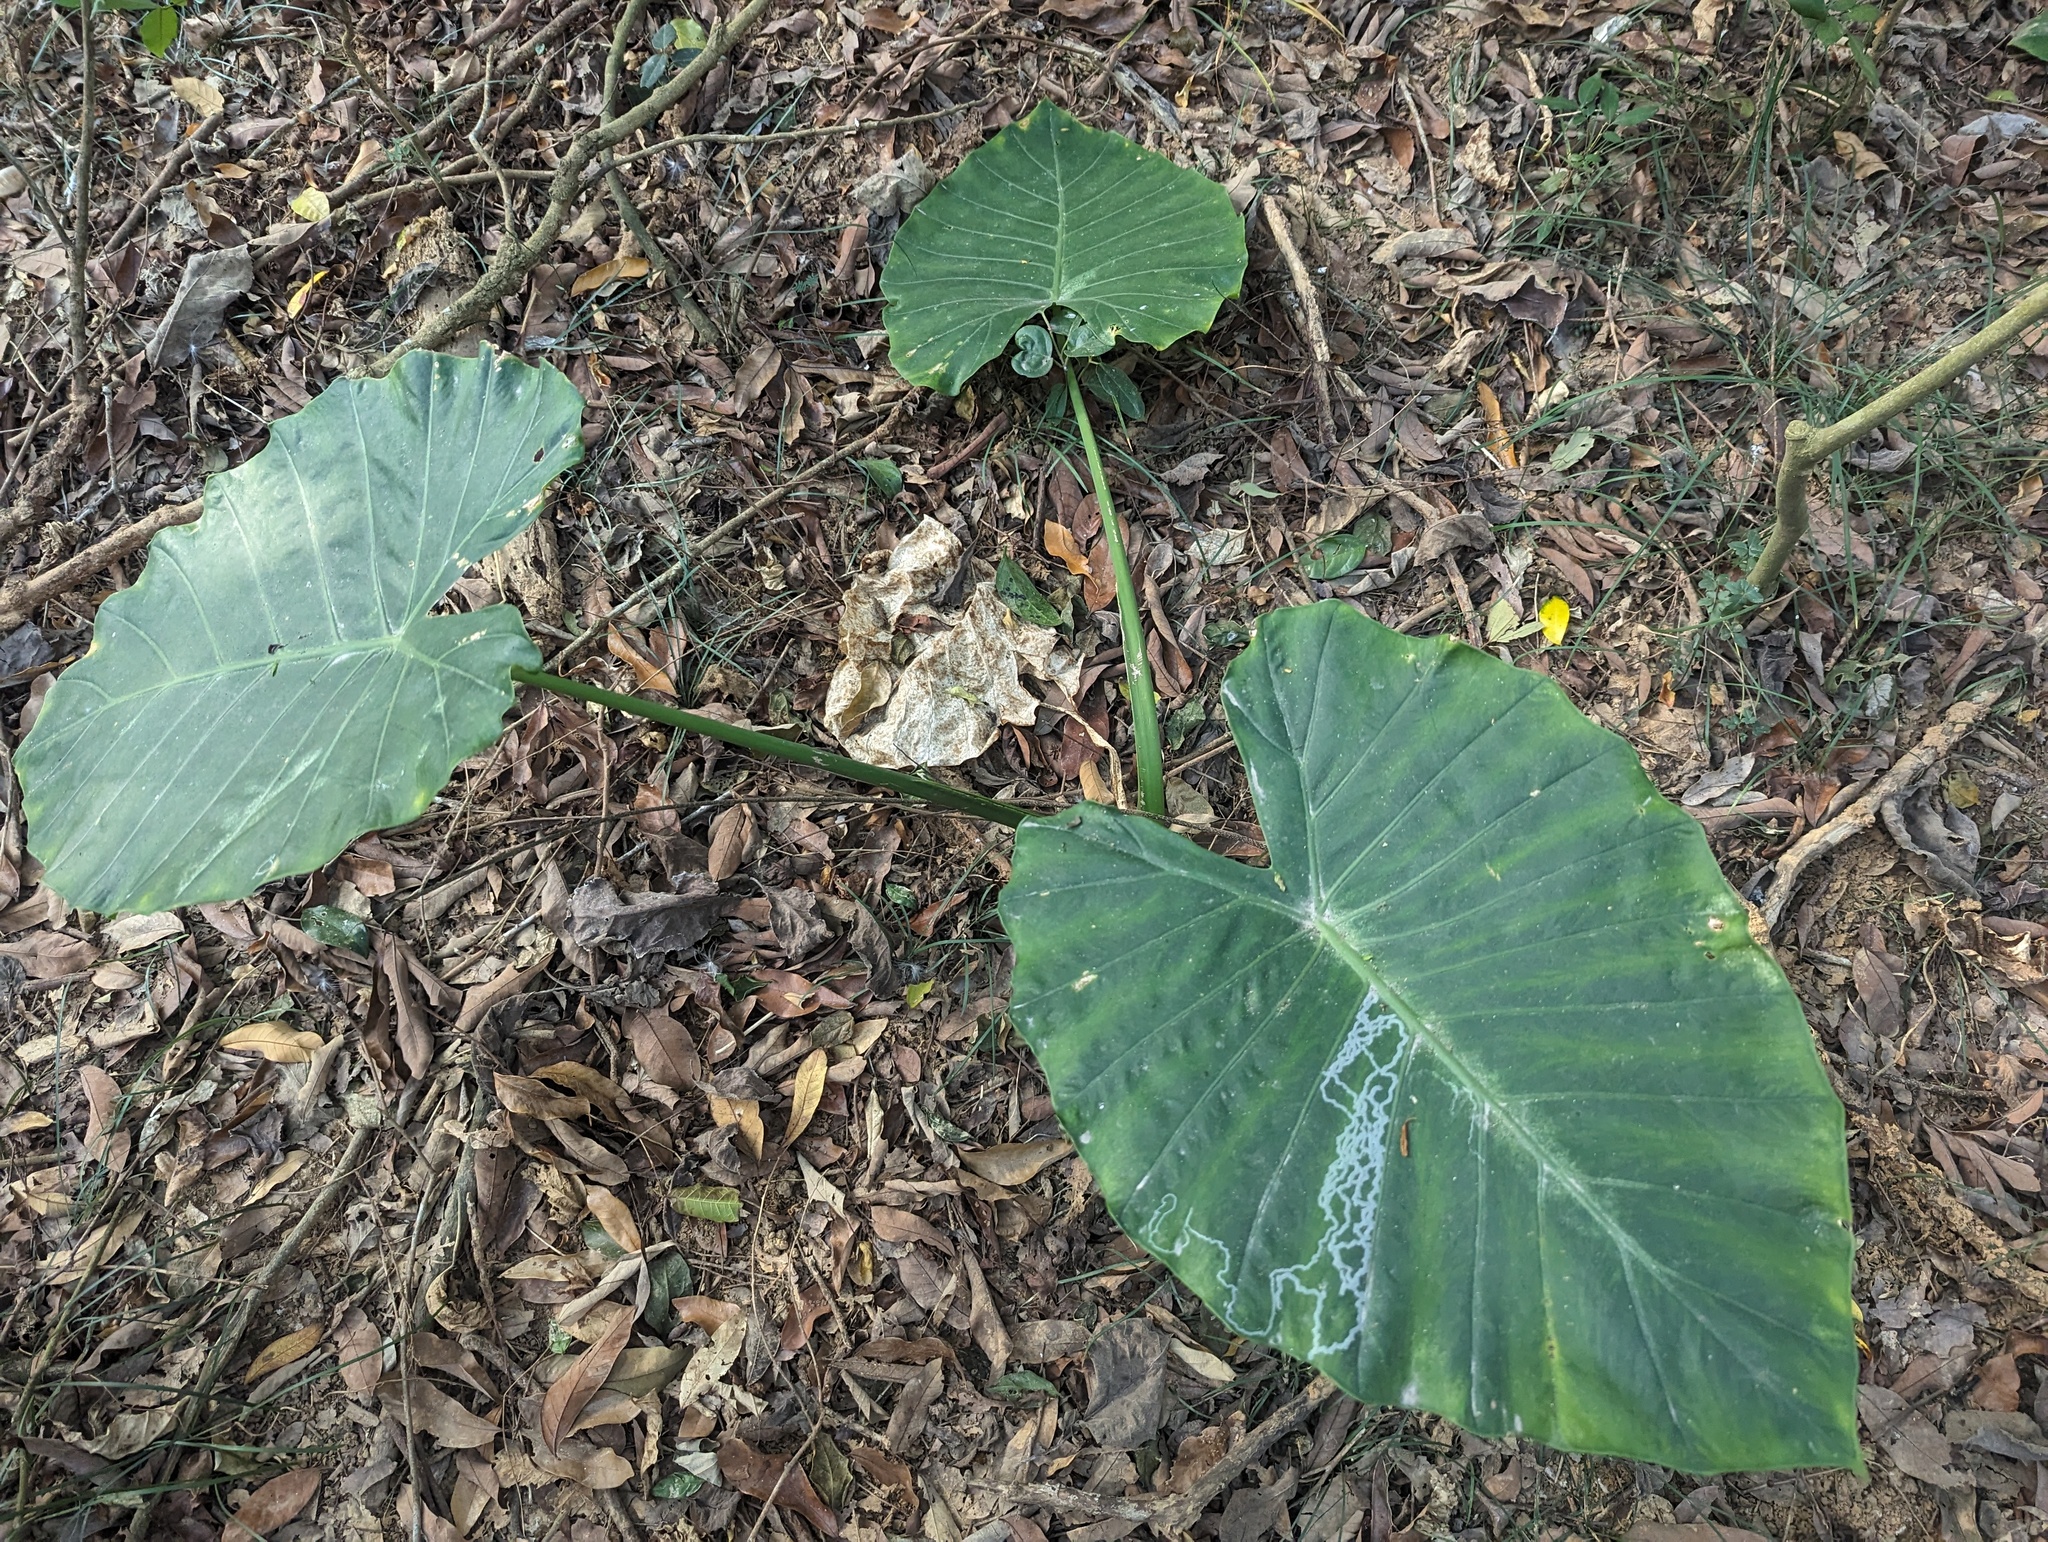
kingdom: Plantae
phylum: Tracheophyta
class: Liliopsida
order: Alismatales
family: Araceae
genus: Alocasia
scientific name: Alocasia odora
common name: Asian taro
